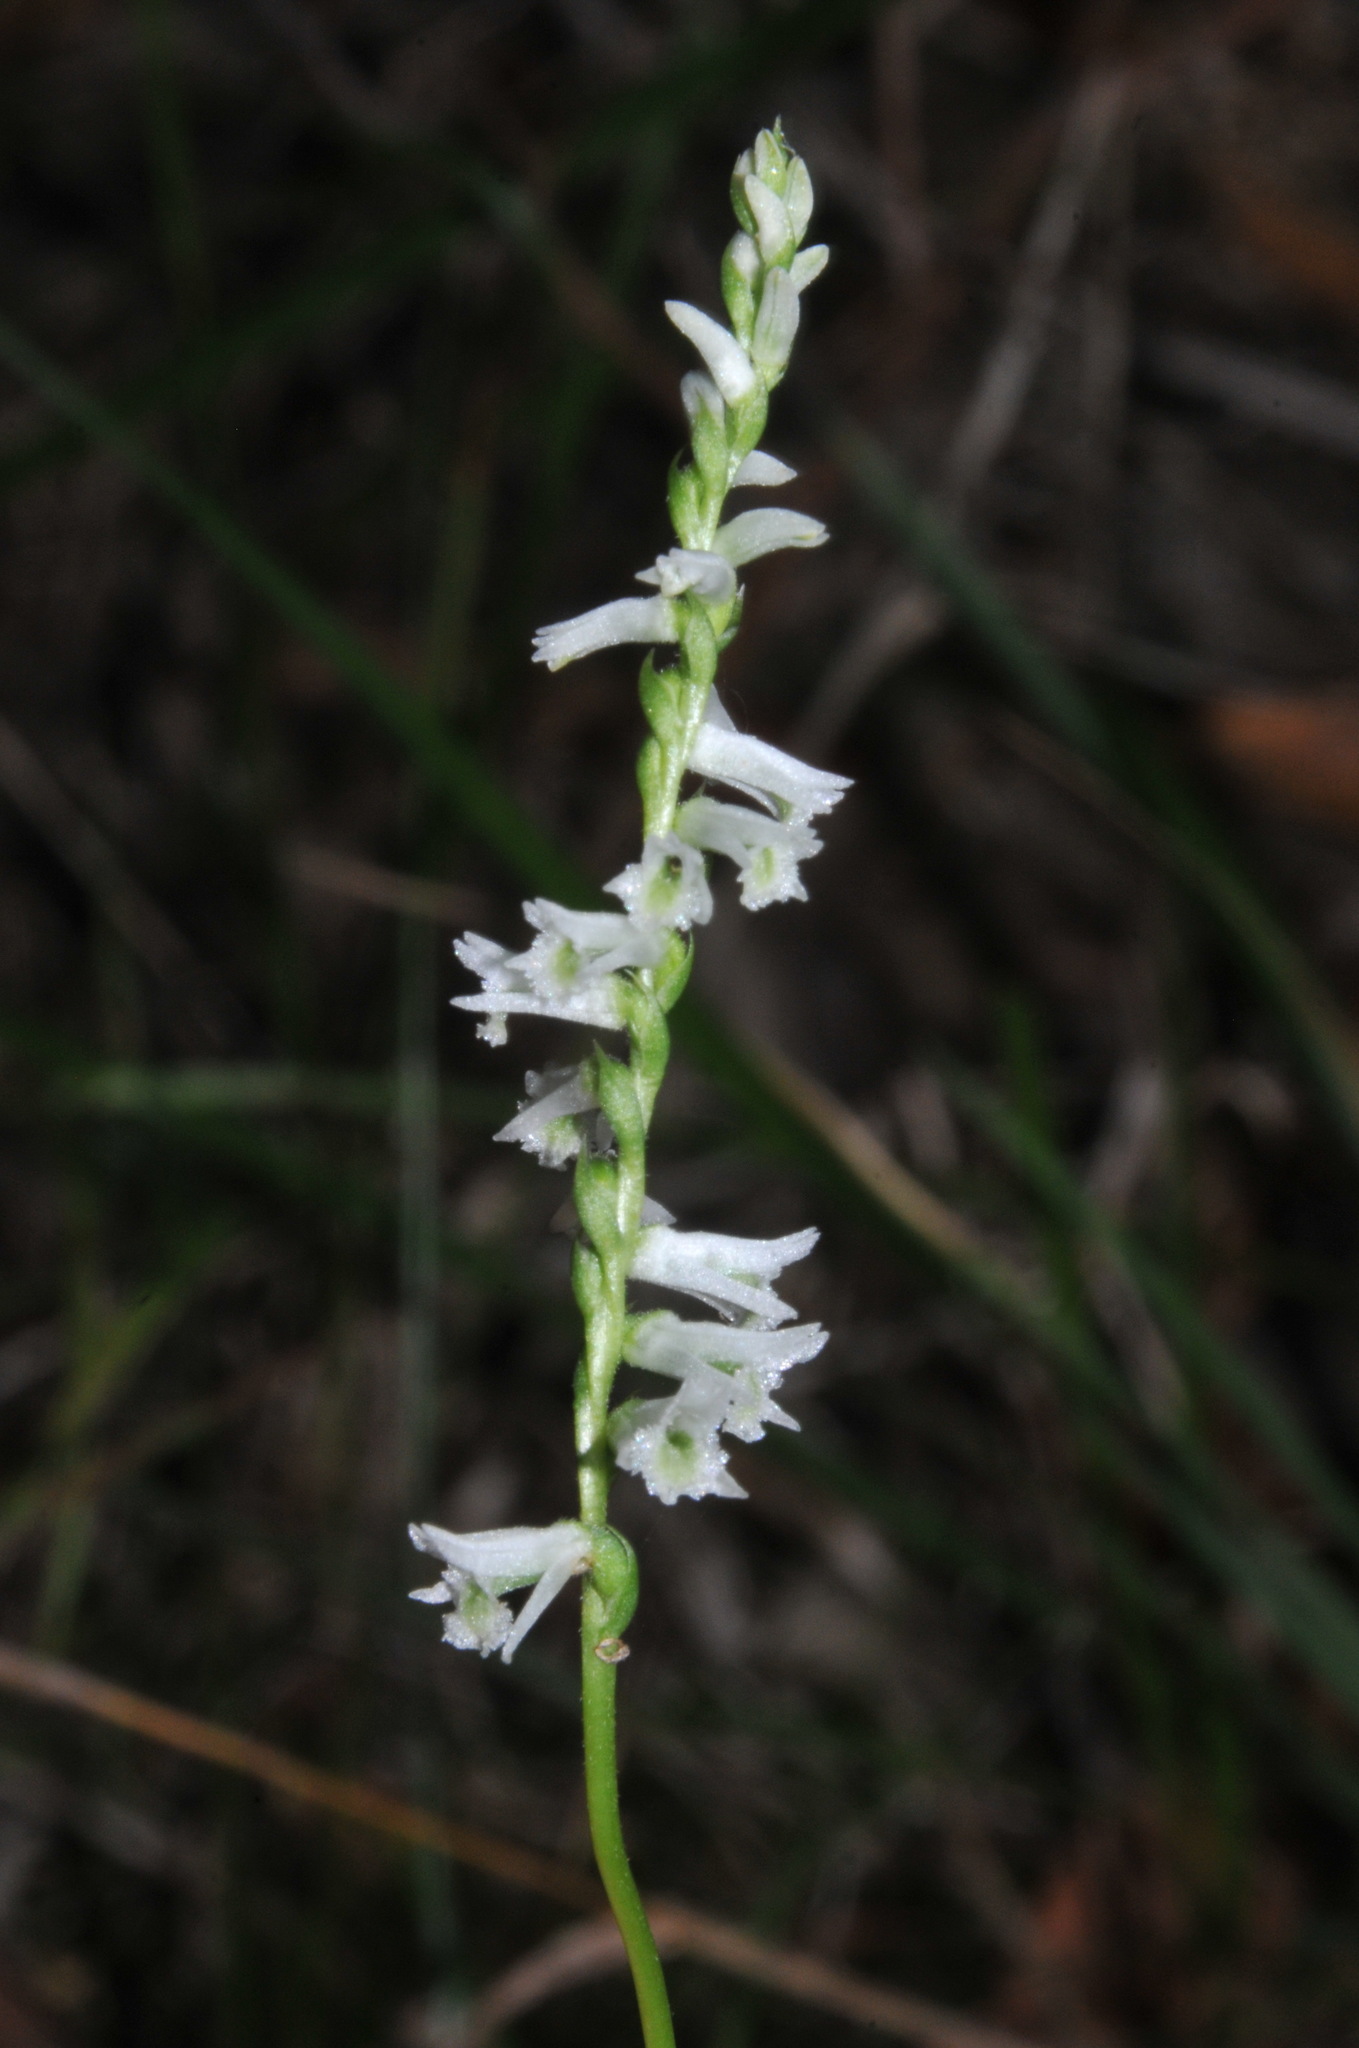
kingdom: Plantae
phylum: Tracheophyta
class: Liliopsida
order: Asparagales
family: Orchidaceae
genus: Spiranthes
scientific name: Spiranthes lacera
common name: Northern slender ladies'-tresses
